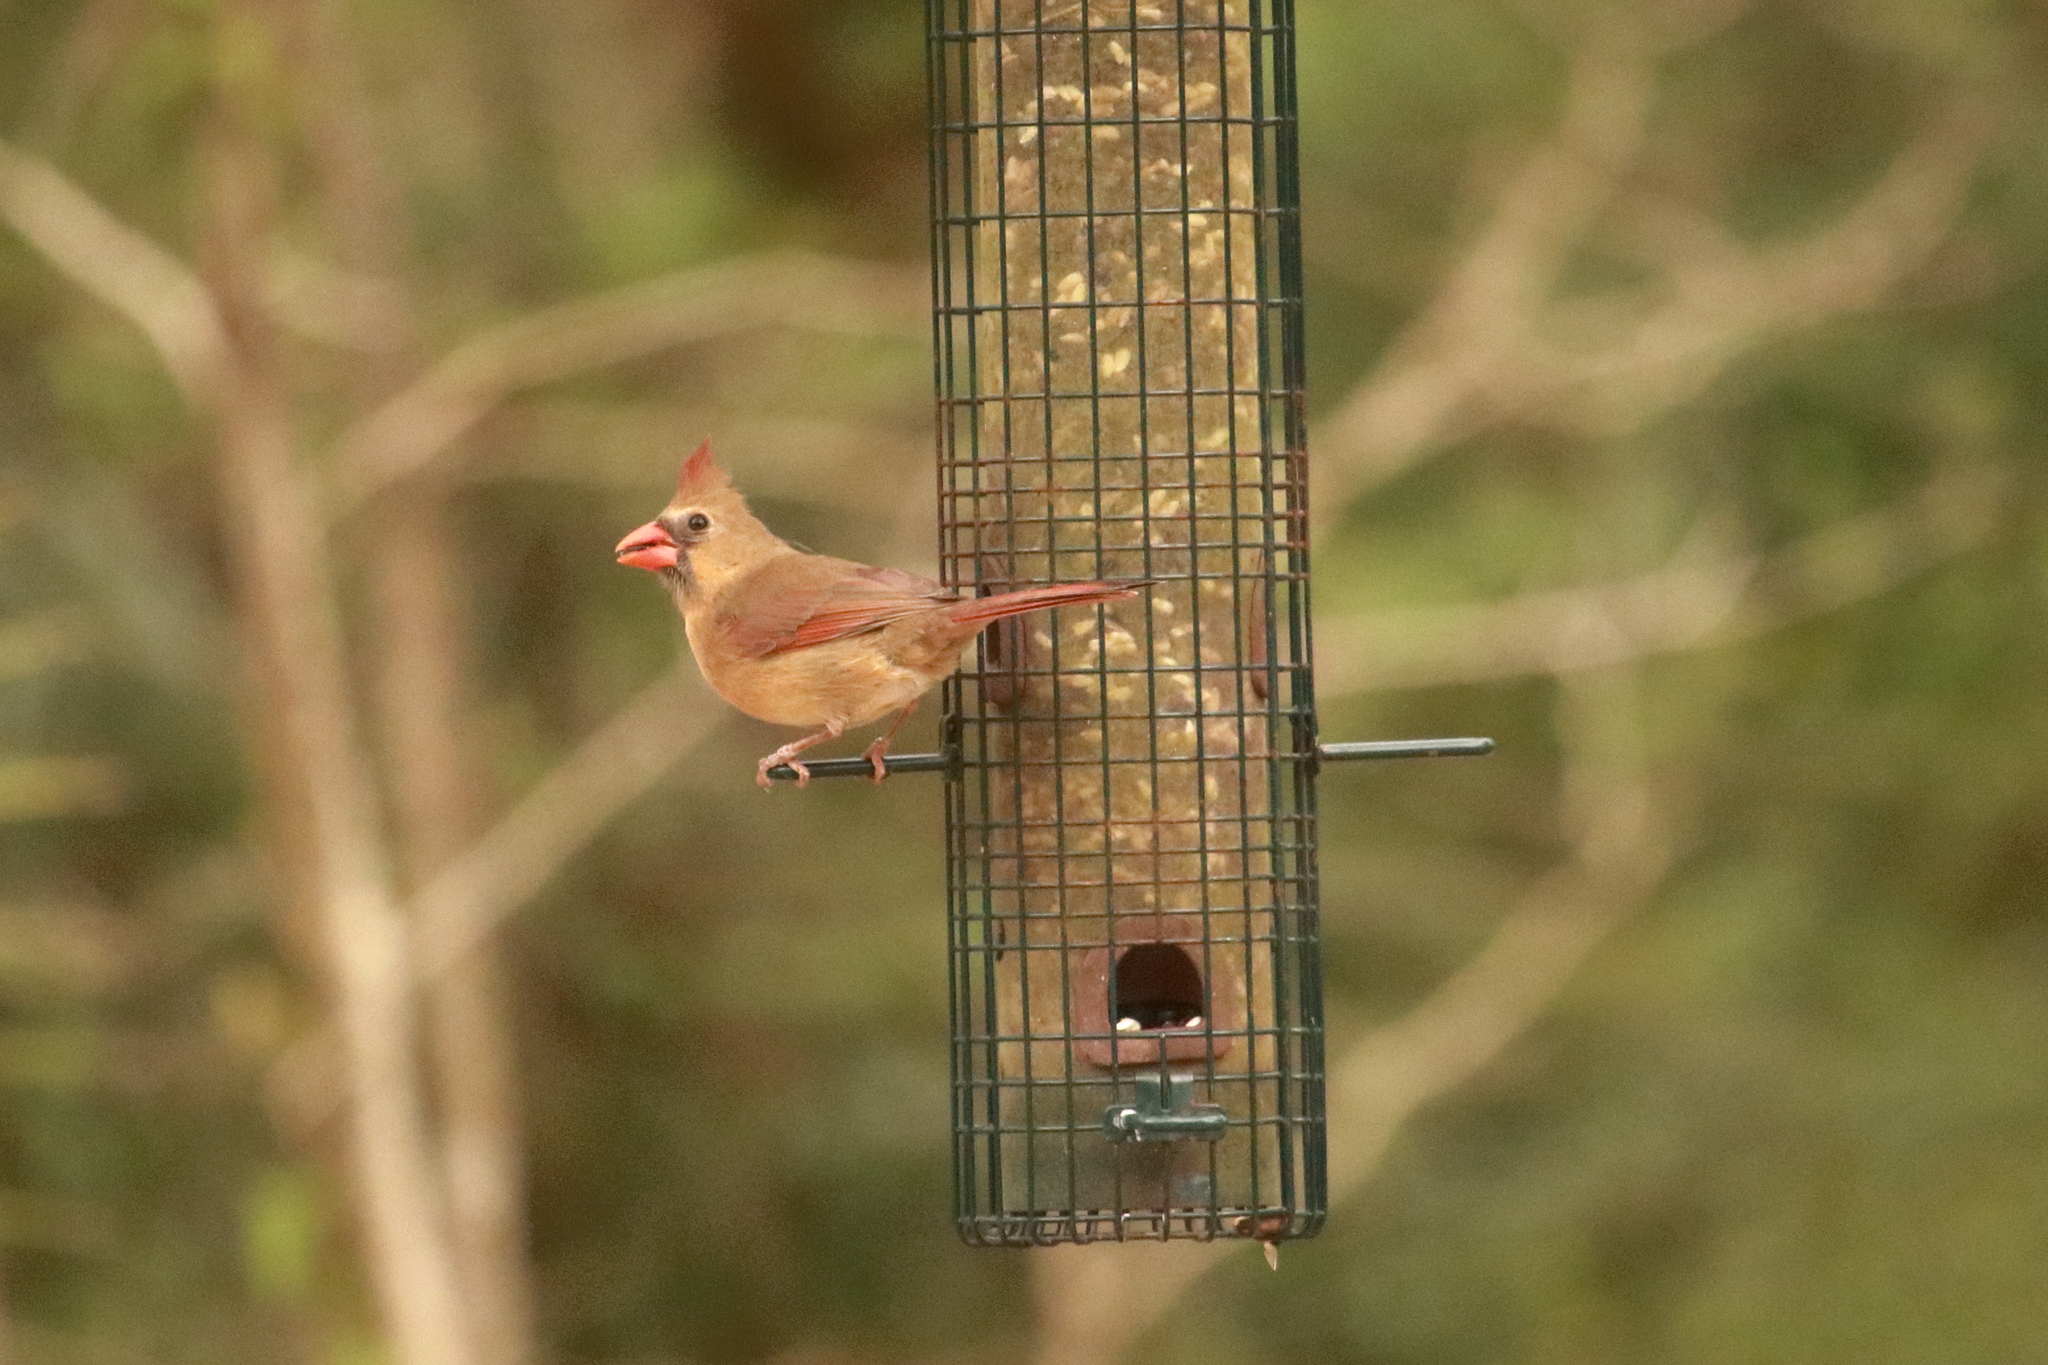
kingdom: Animalia
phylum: Chordata
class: Aves
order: Passeriformes
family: Cardinalidae
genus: Cardinalis
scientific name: Cardinalis cardinalis
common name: Northern cardinal
